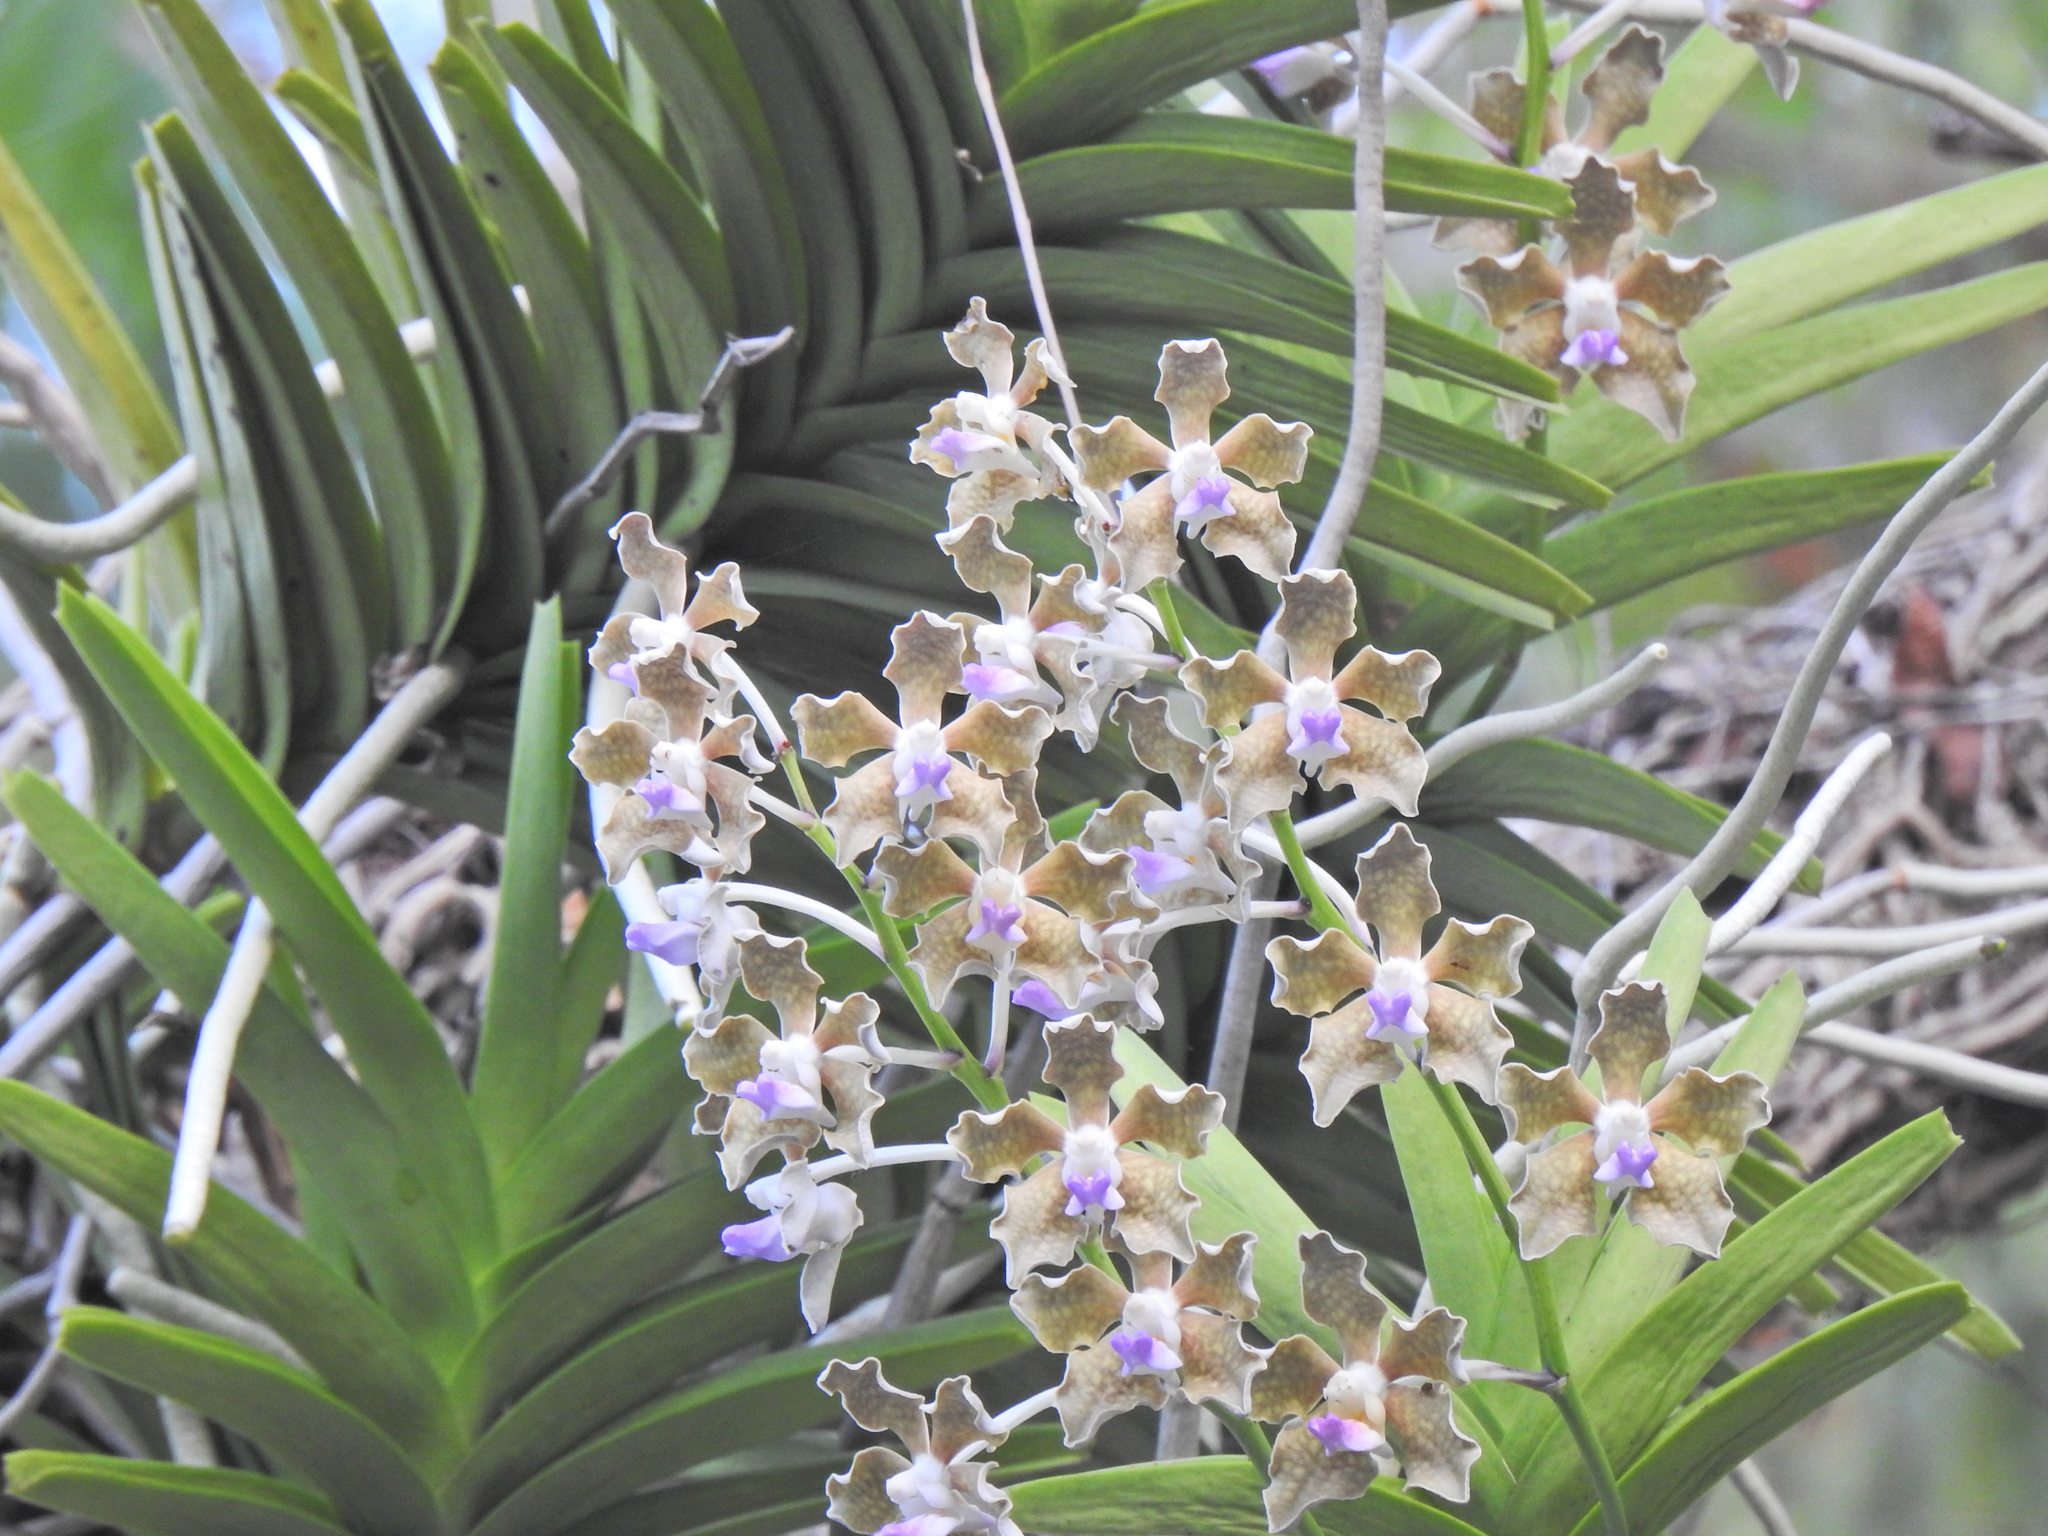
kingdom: Plantae
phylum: Tracheophyta
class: Liliopsida
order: Asparagales
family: Orchidaceae
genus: Vanda
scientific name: Vanda tessellata
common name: Grey orchid
